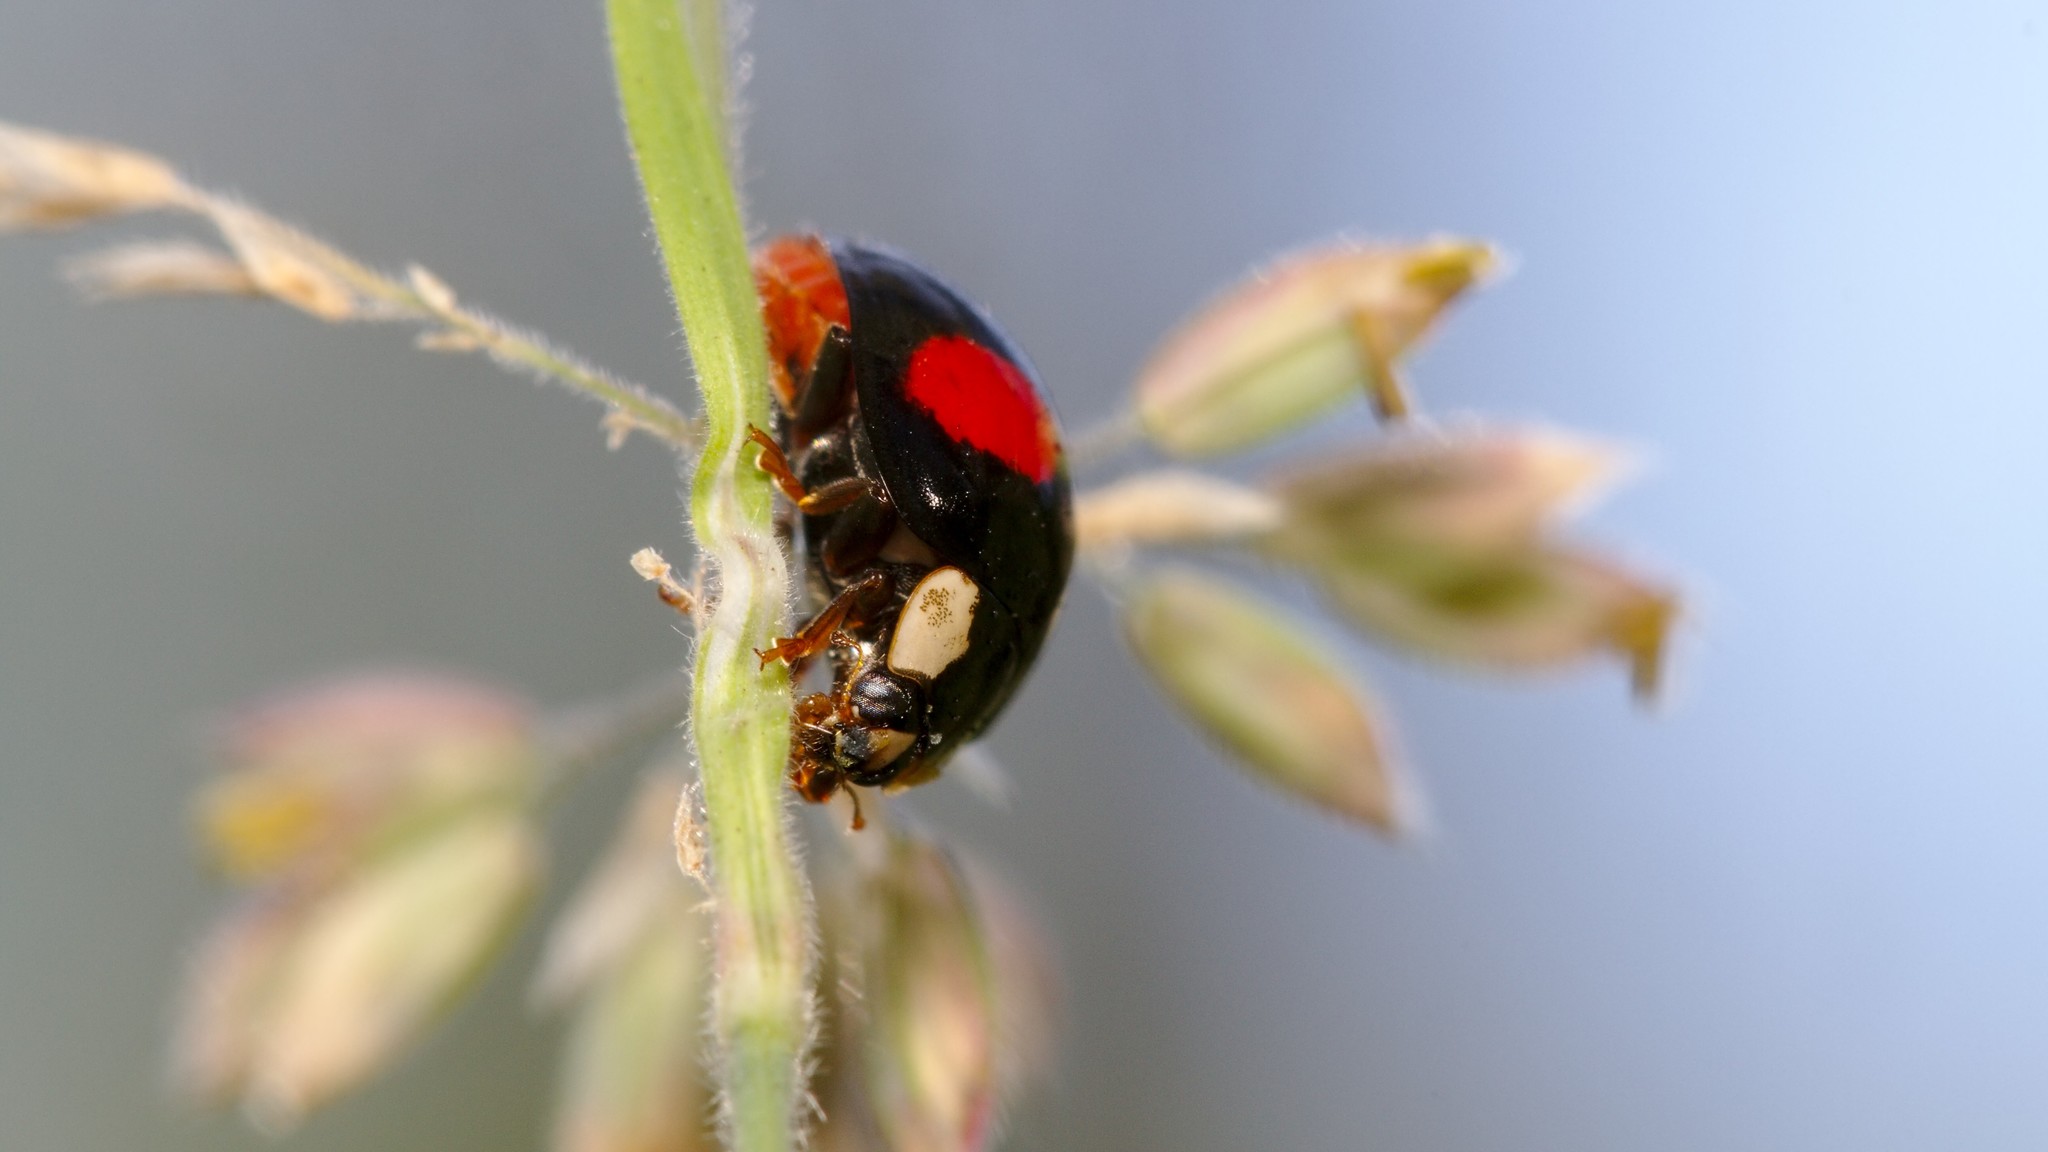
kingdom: Animalia
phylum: Arthropoda
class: Insecta
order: Coleoptera
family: Coccinellidae
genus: Harmonia
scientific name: Harmonia axyridis
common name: Harlequin ladybird
